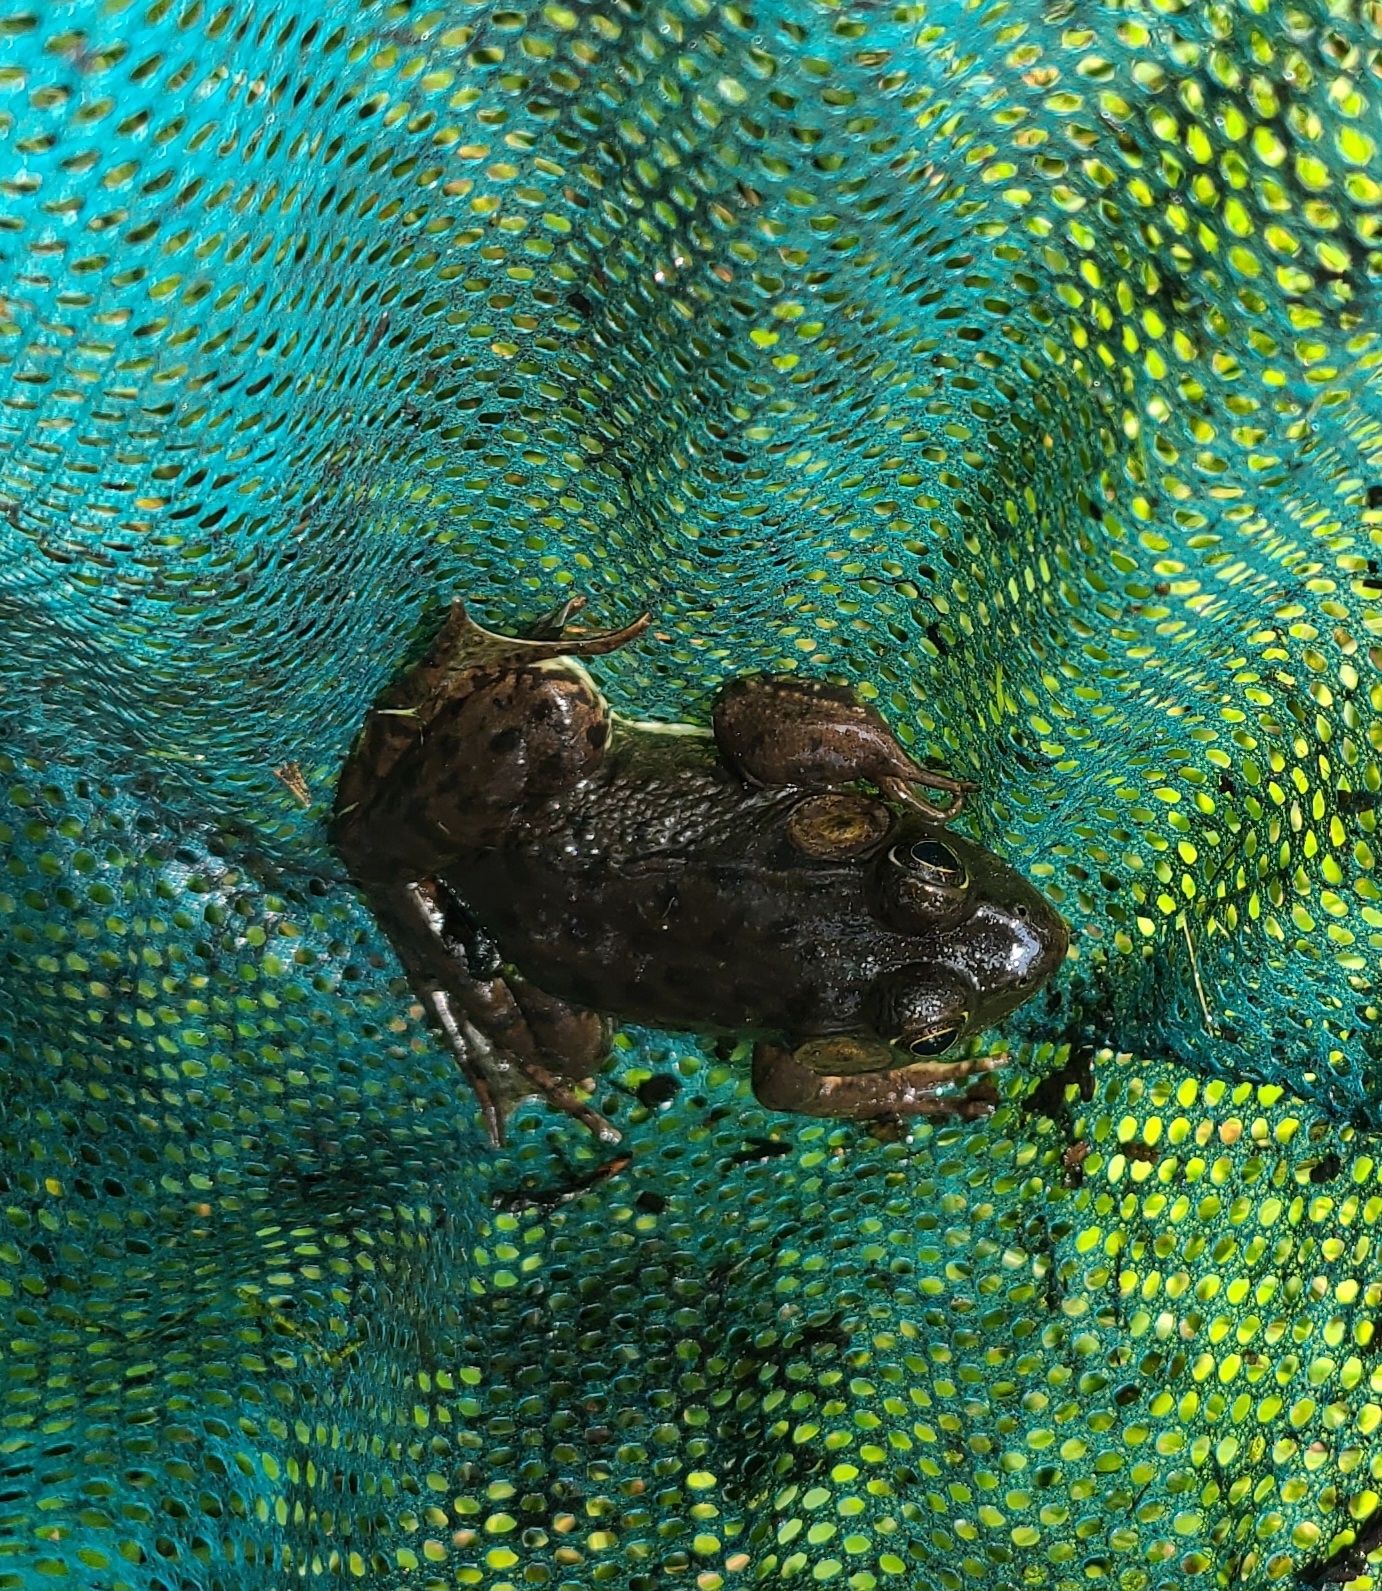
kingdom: Animalia
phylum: Chordata
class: Amphibia
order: Anura
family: Ranidae
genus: Lithobates
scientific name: Lithobates catesbeianus
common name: American bullfrog
